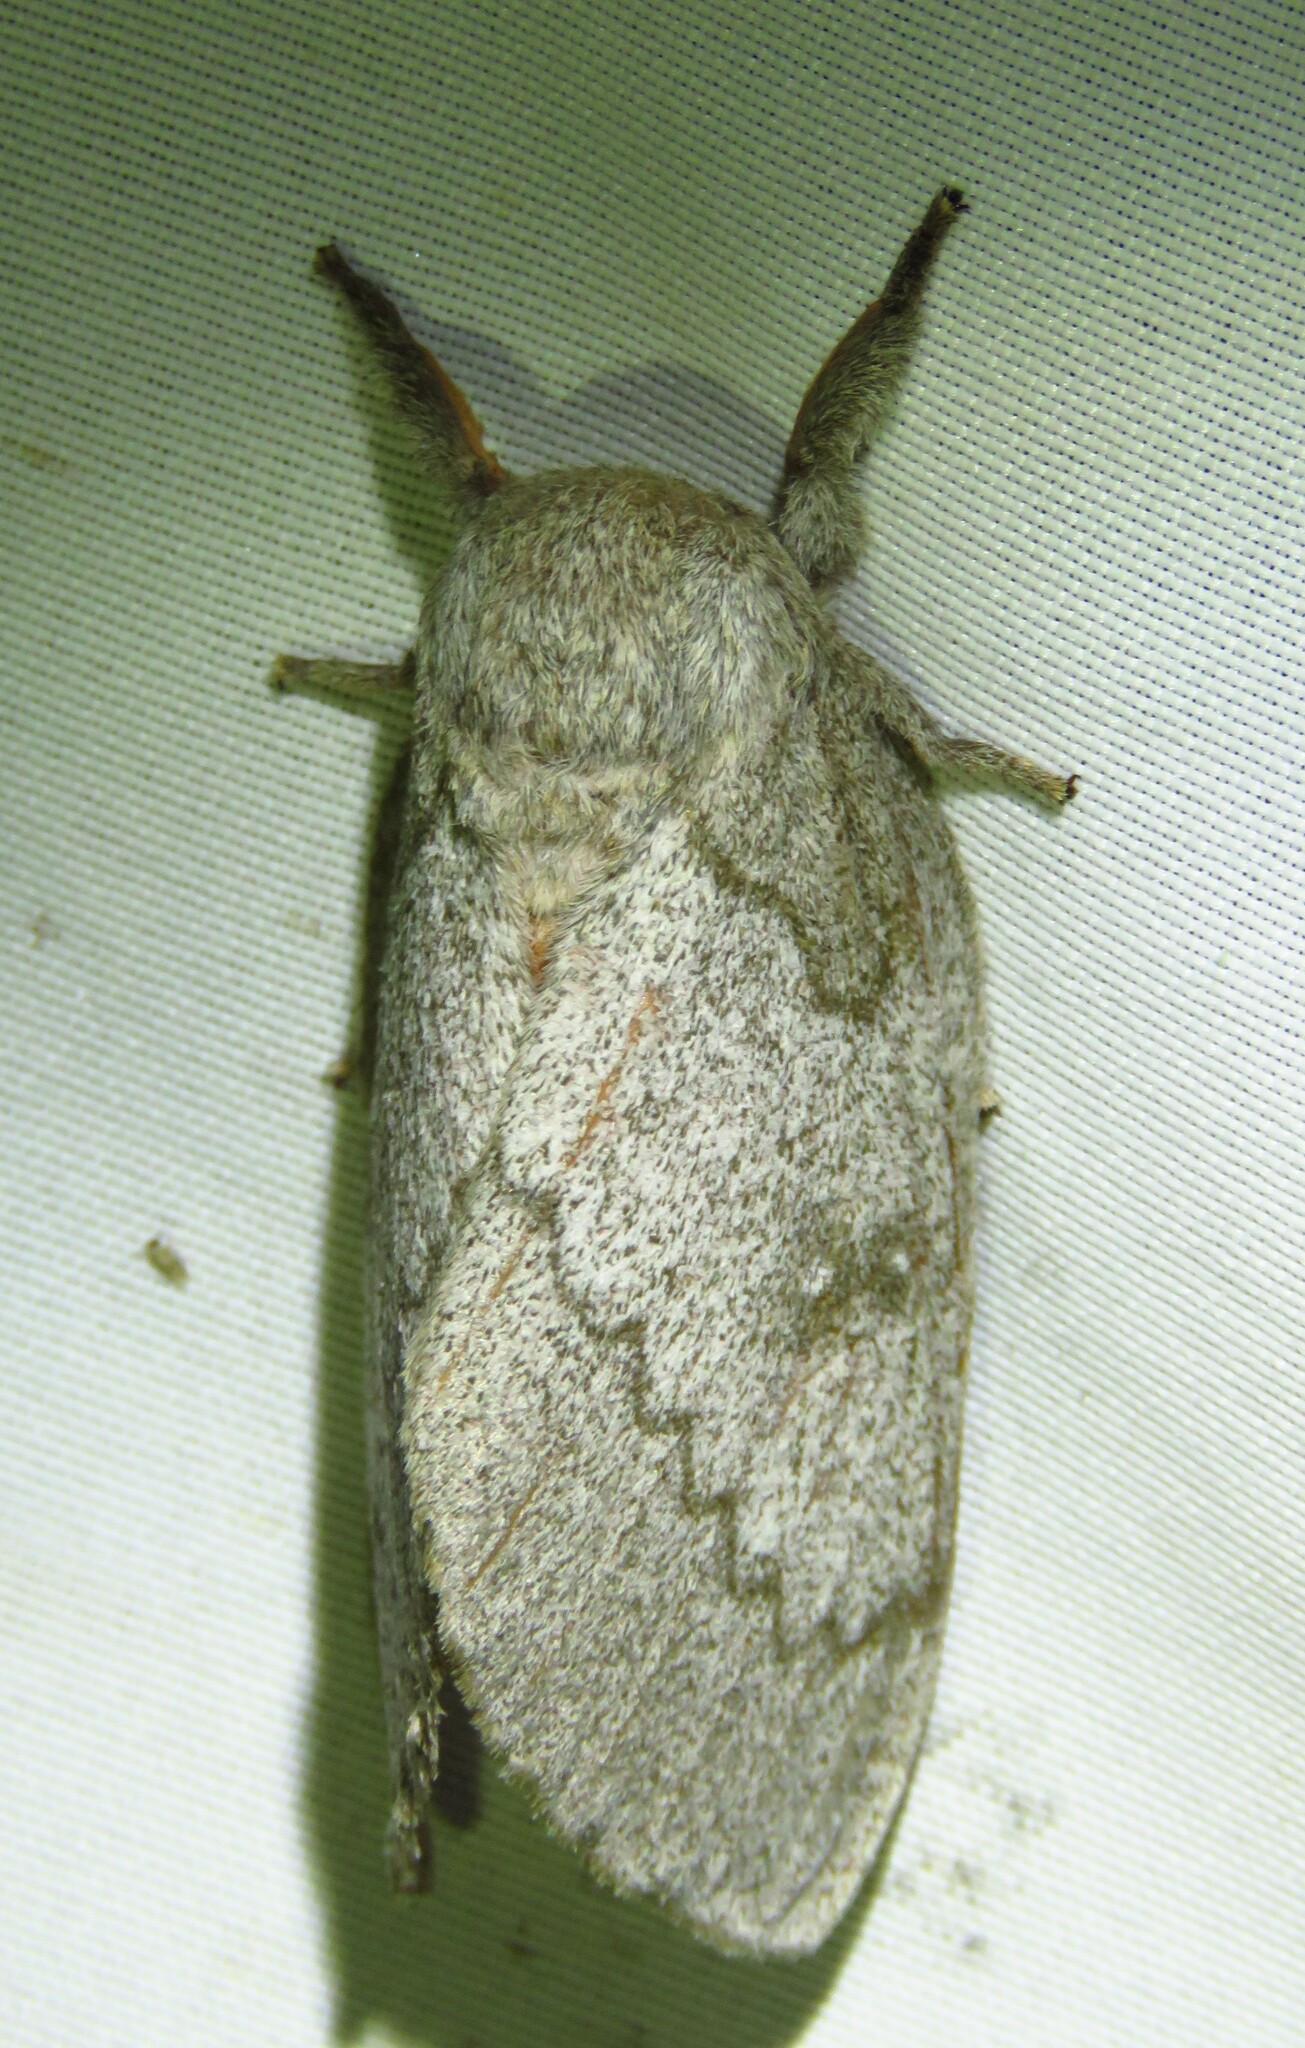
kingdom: Animalia
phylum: Arthropoda
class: Insecta
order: Lepidoptera
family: Saturniidae
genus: Syssphinx
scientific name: Syssphinx heiligbrodti
